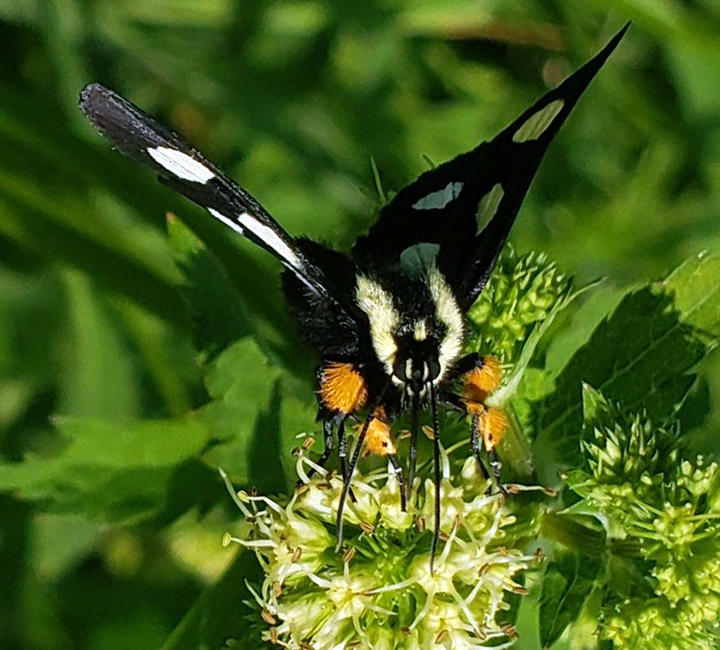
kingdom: Animalia
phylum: Arthropoda
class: Insecta
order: Lepidoptera
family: Noctuidae
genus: Alypia
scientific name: Alypia octomaculata
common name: Eight-spotted forester
